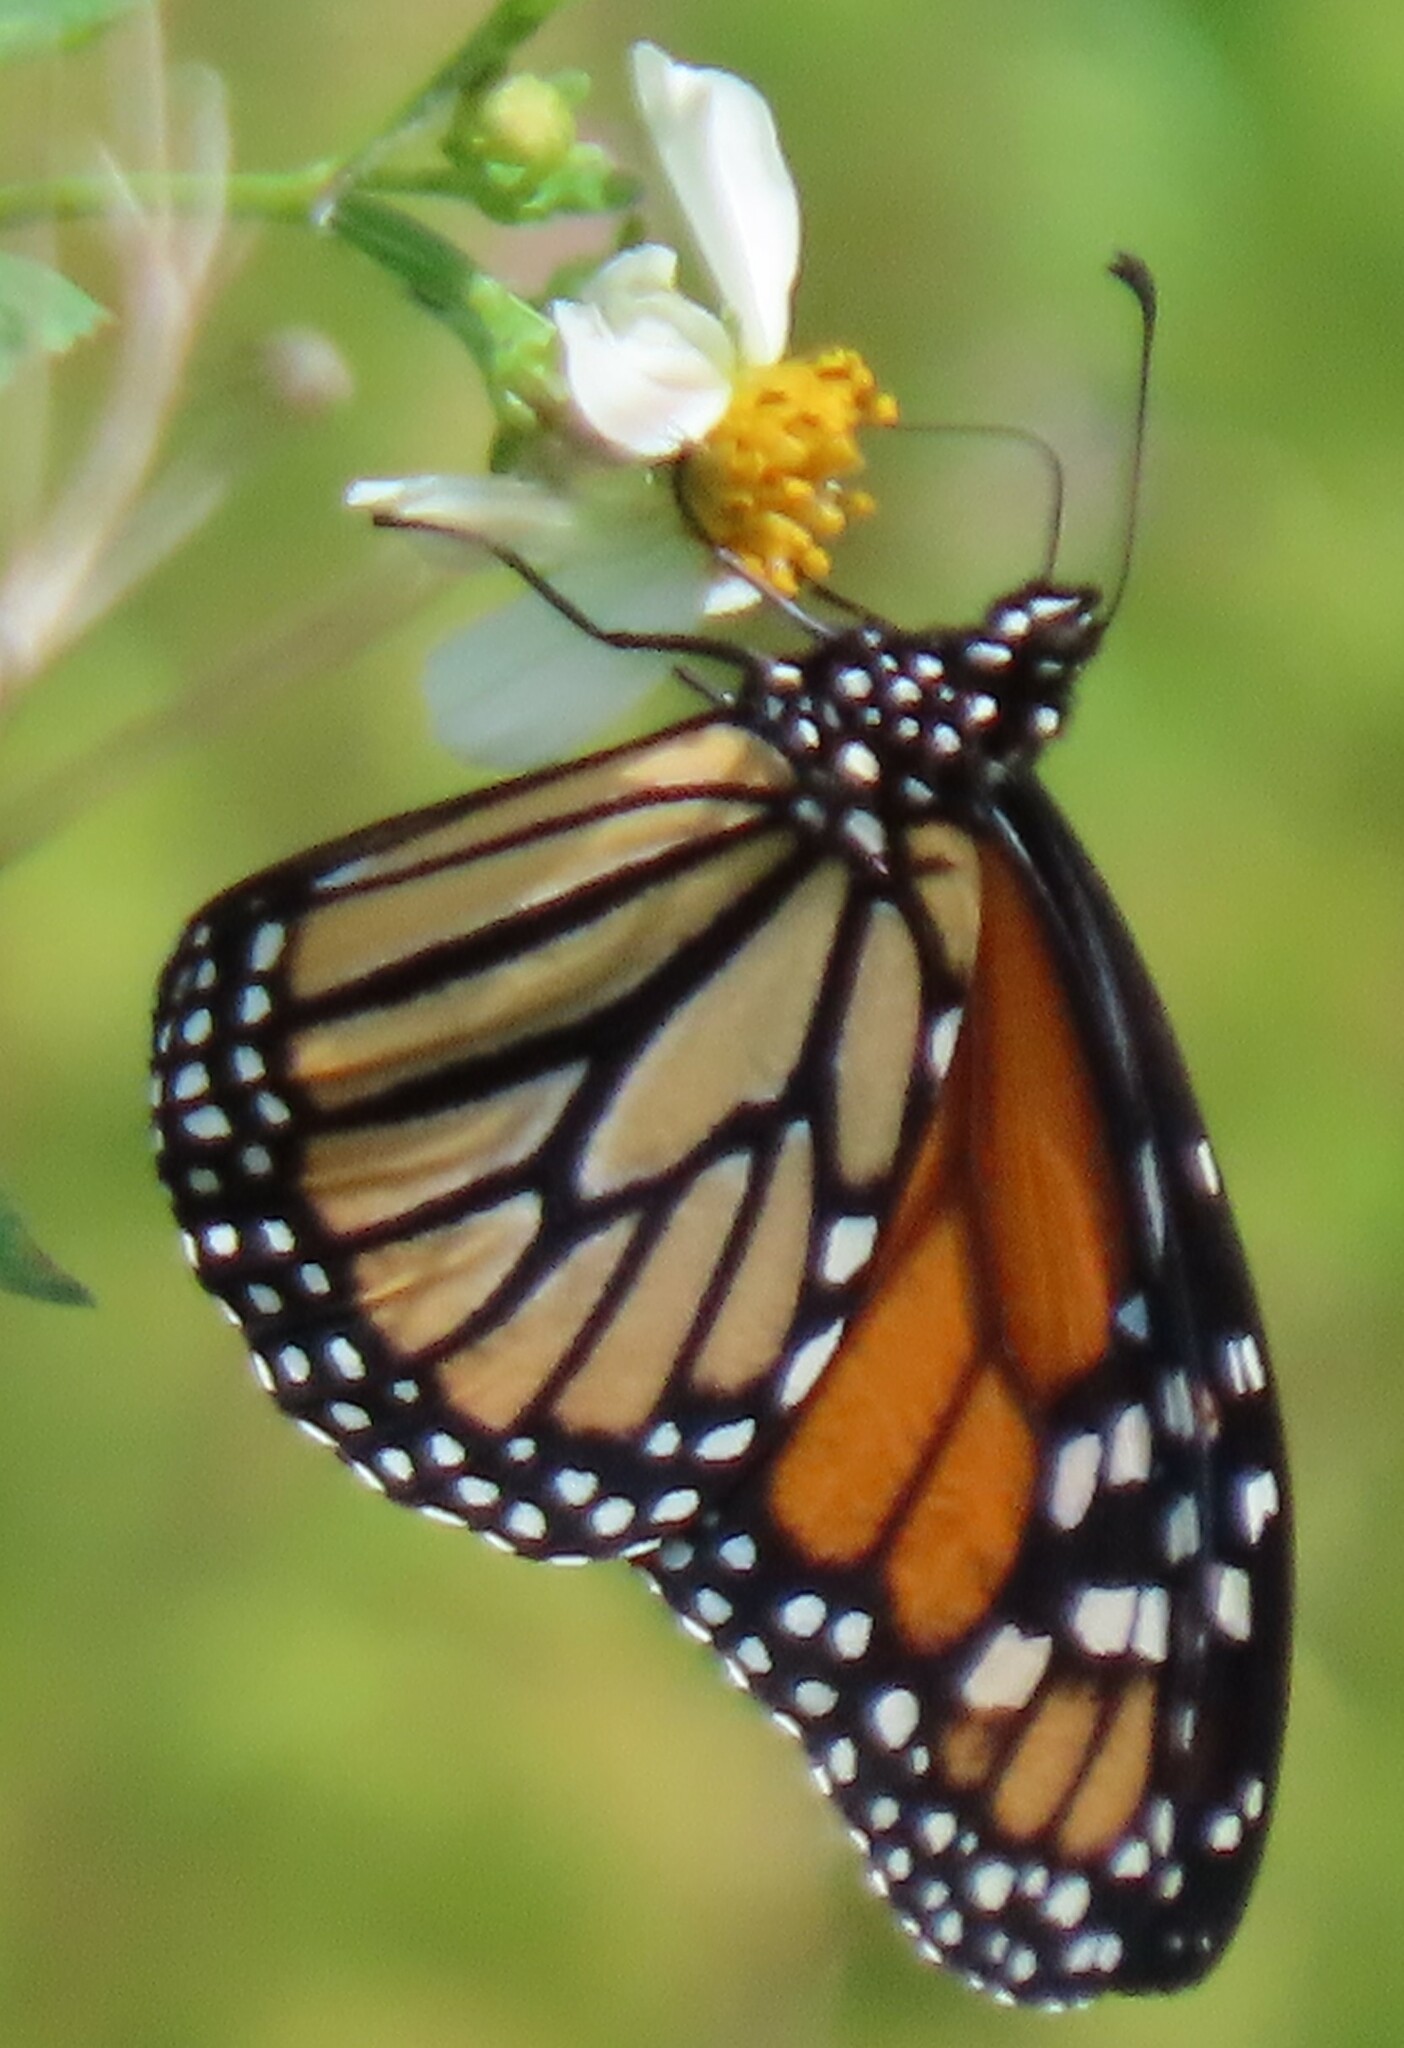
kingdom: Animalia
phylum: Arthropoda
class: Insecta
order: Lepidoptera
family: Nymphalidae
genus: Danaus
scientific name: Danaus plexippus
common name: Monarch
